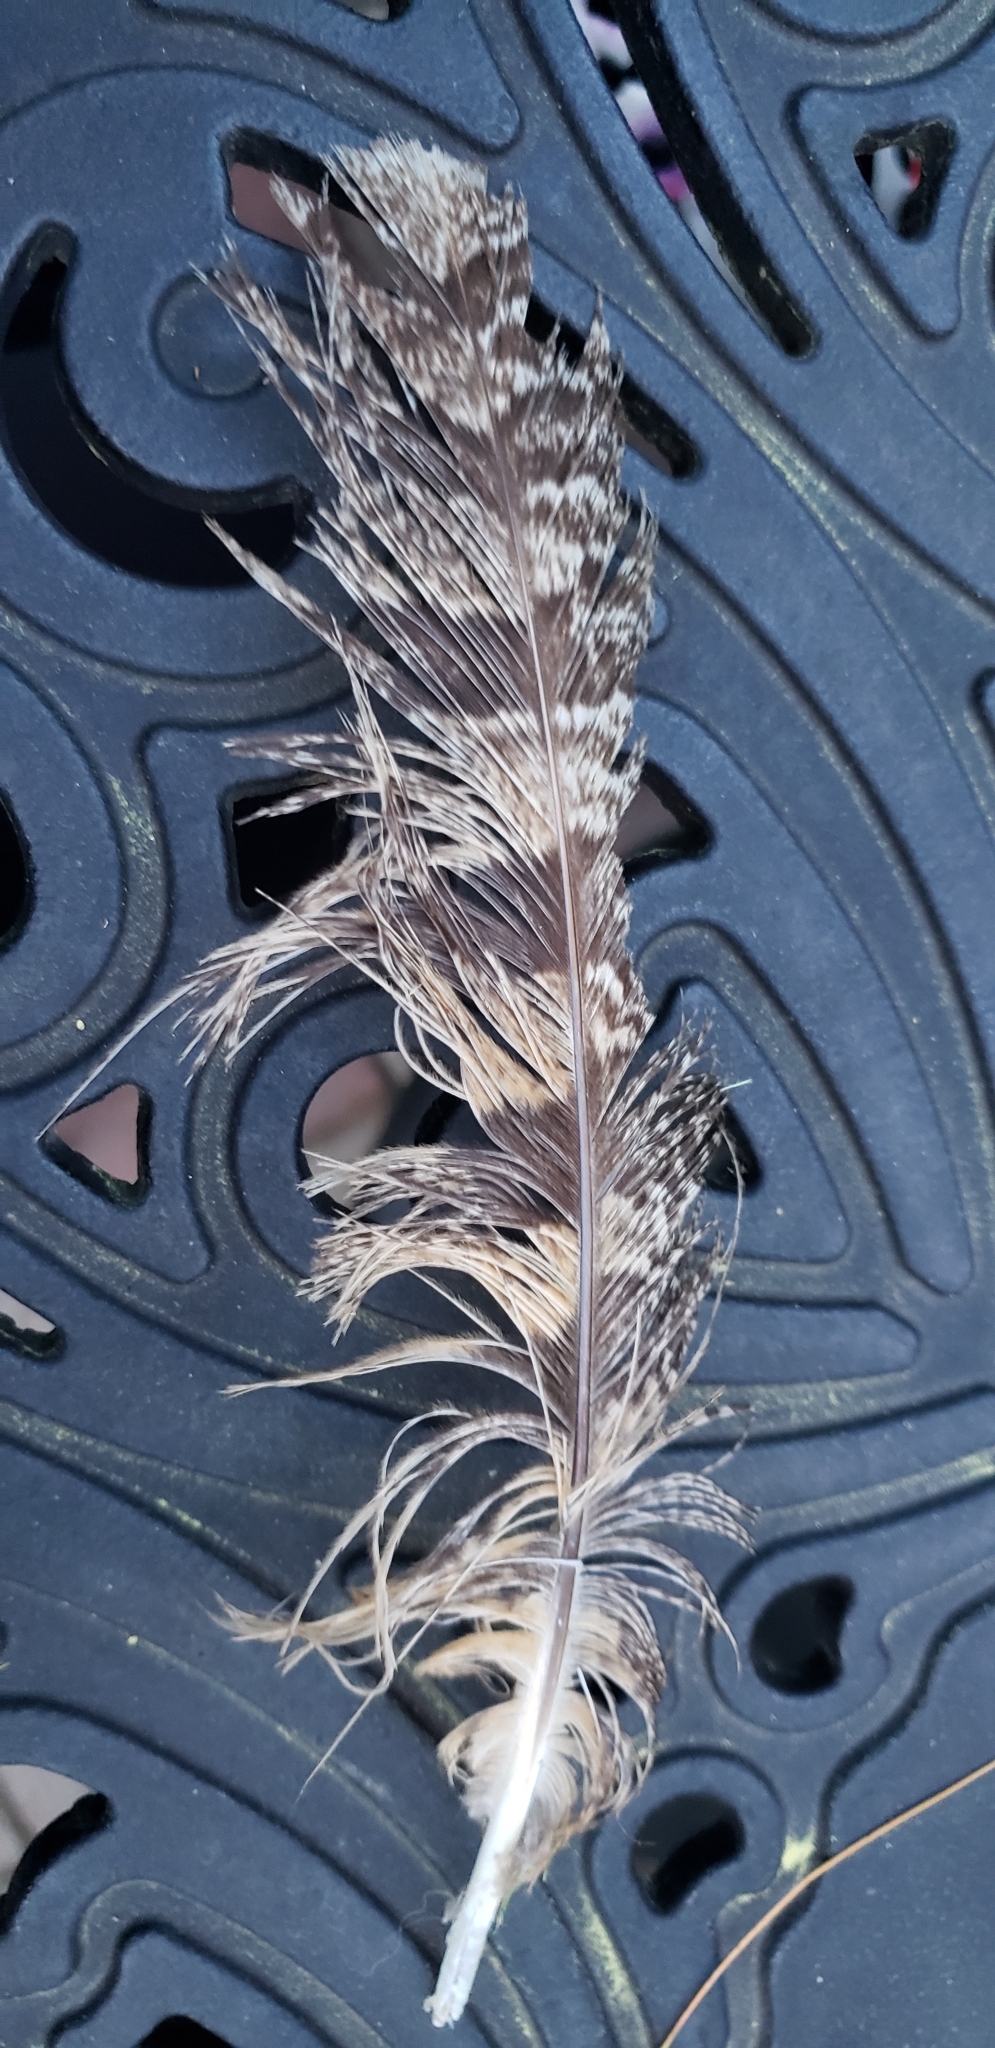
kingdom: Animalia
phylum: Chordata
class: Aves
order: Strigiformes
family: Strigidae
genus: Bubo
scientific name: Bubo virginianus
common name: Great horned owl
